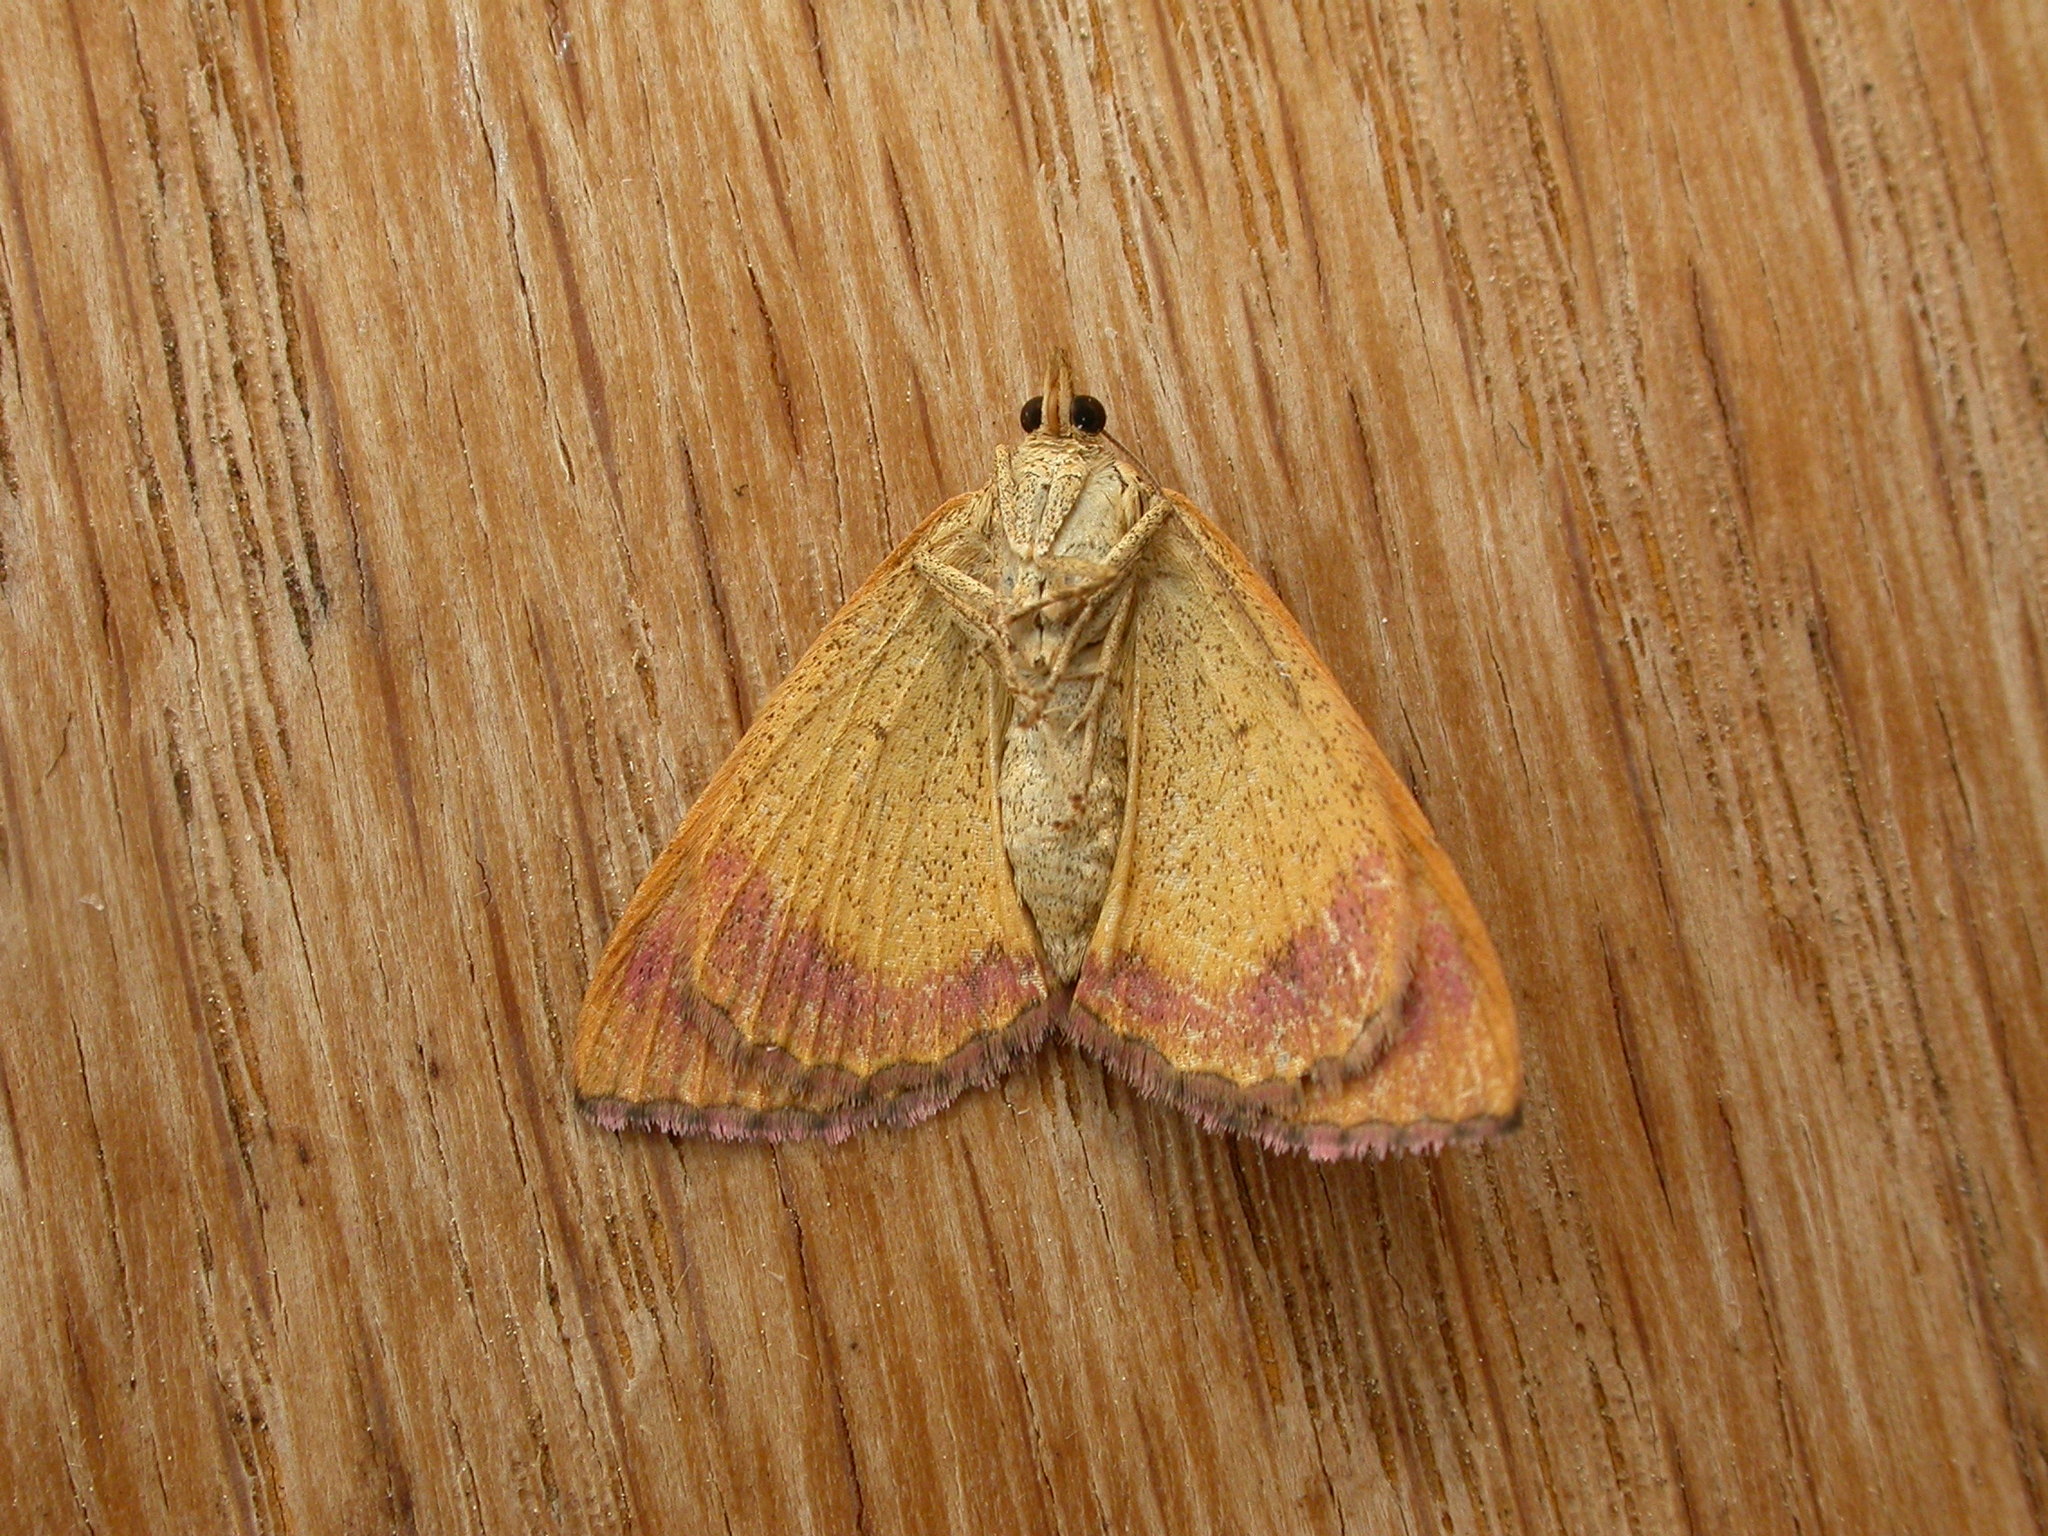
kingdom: Animalia
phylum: Arthropoda
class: Insecta
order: Lepidoptera
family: Geometridae
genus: Chrysolarentia
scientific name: Chrysolarentia mecynata
